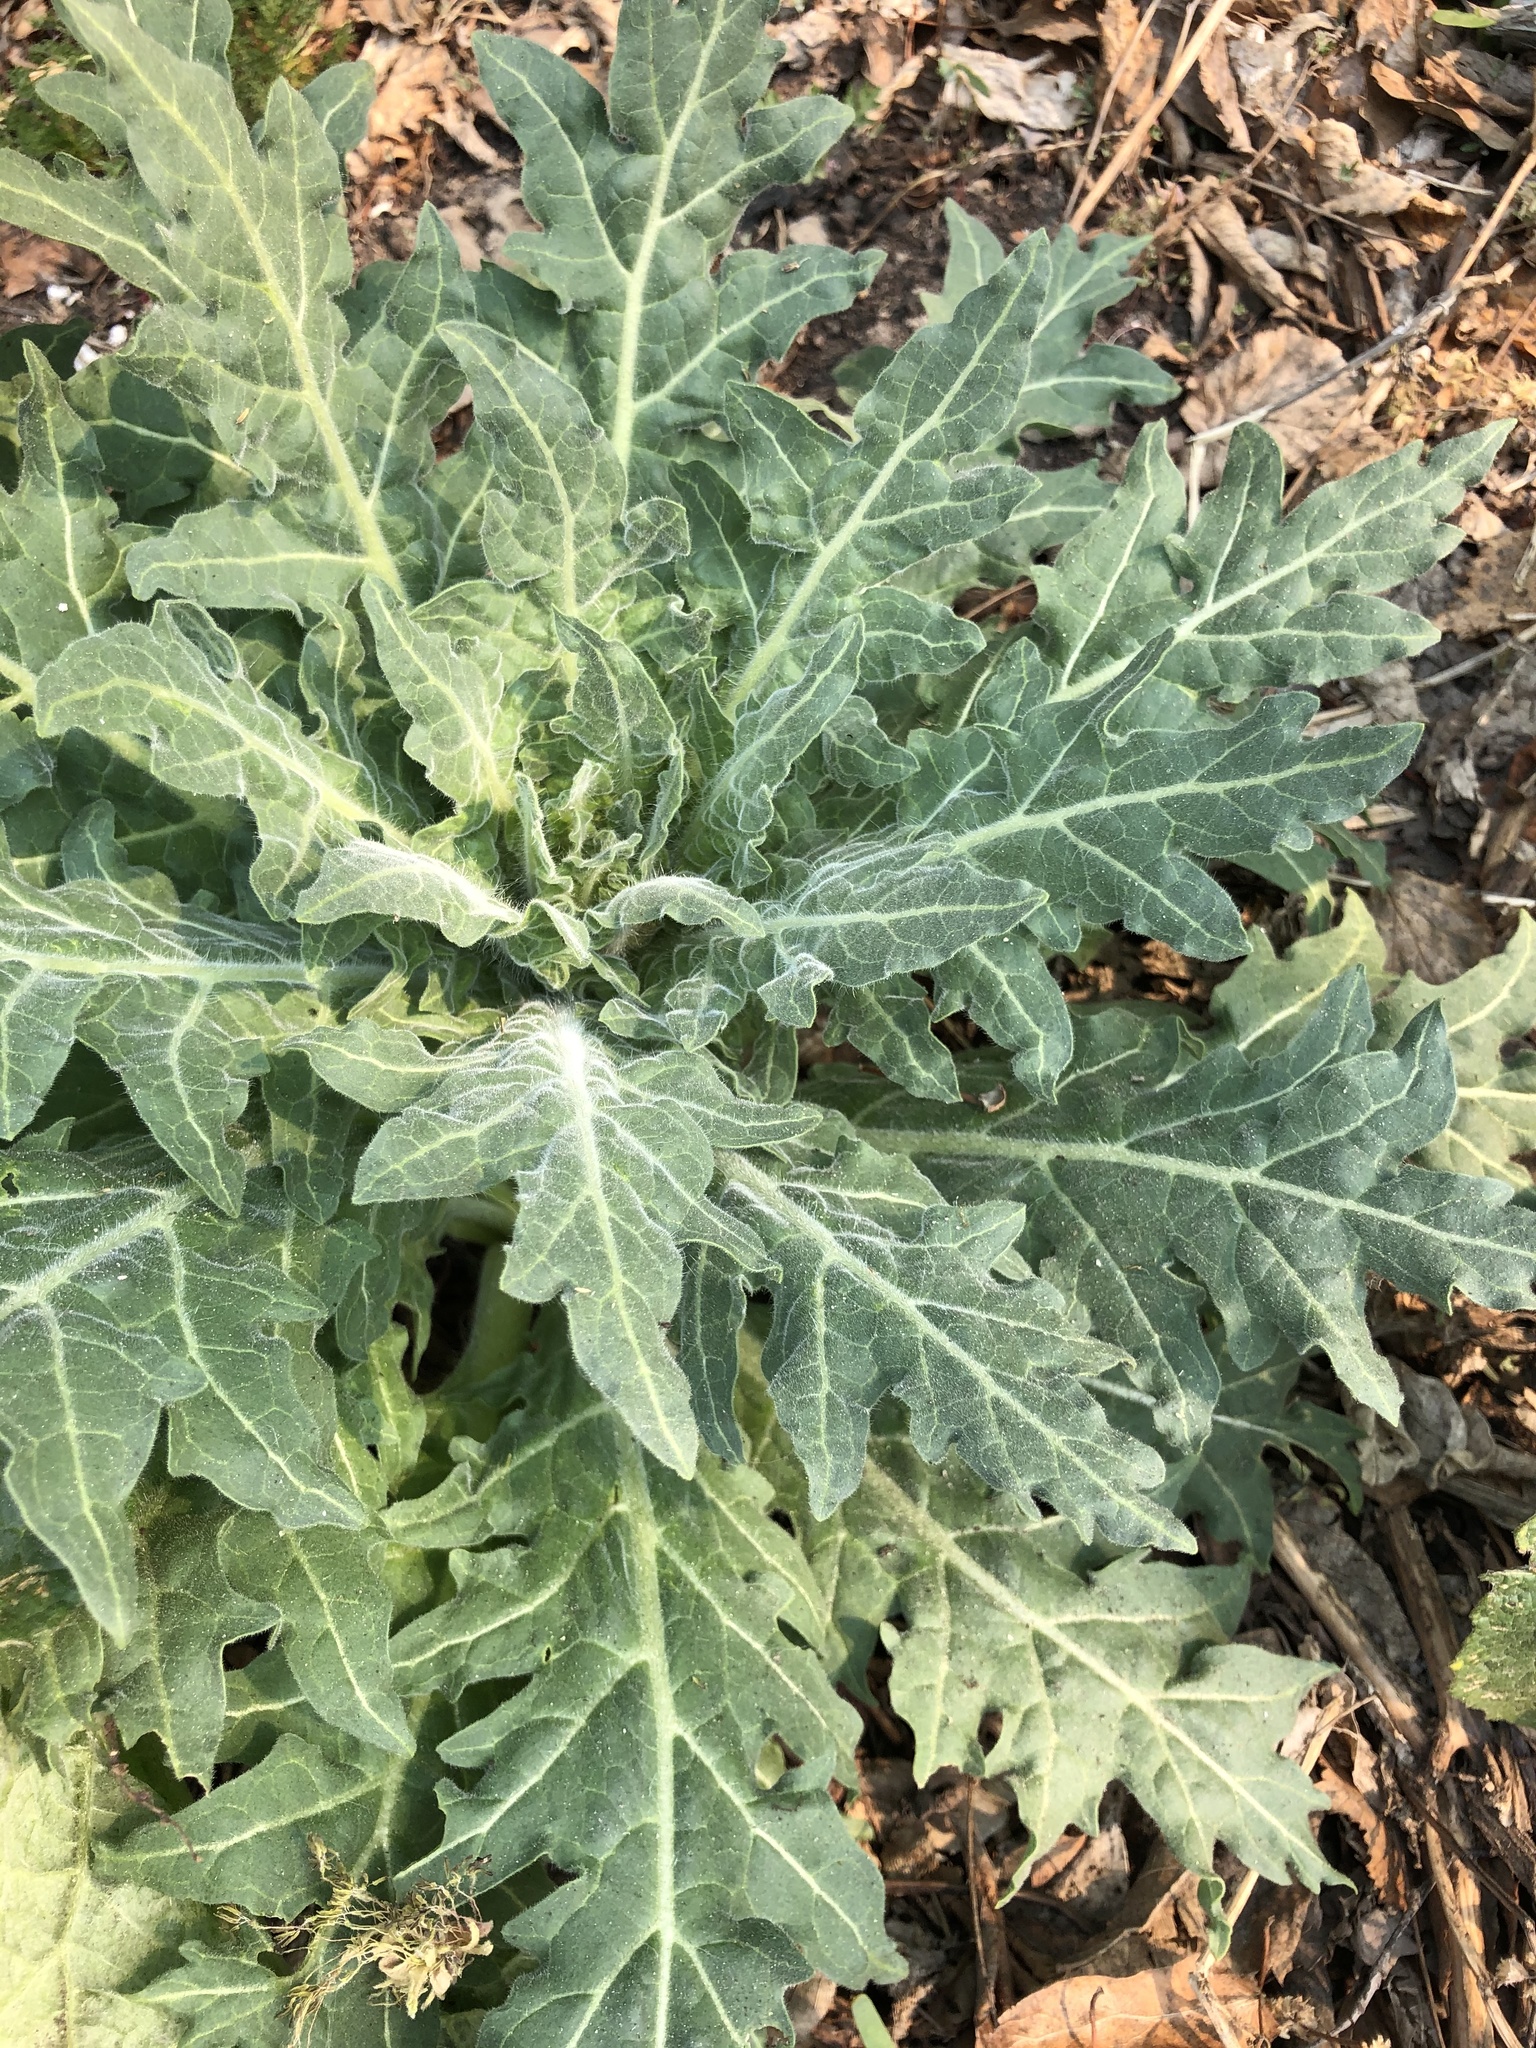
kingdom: Plantae
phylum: Tracheophyta
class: Magnoliopsida
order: Solanales
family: Solanaceae
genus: Hyoscyamus
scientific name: Hyoscyamus niger
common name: Henbane
